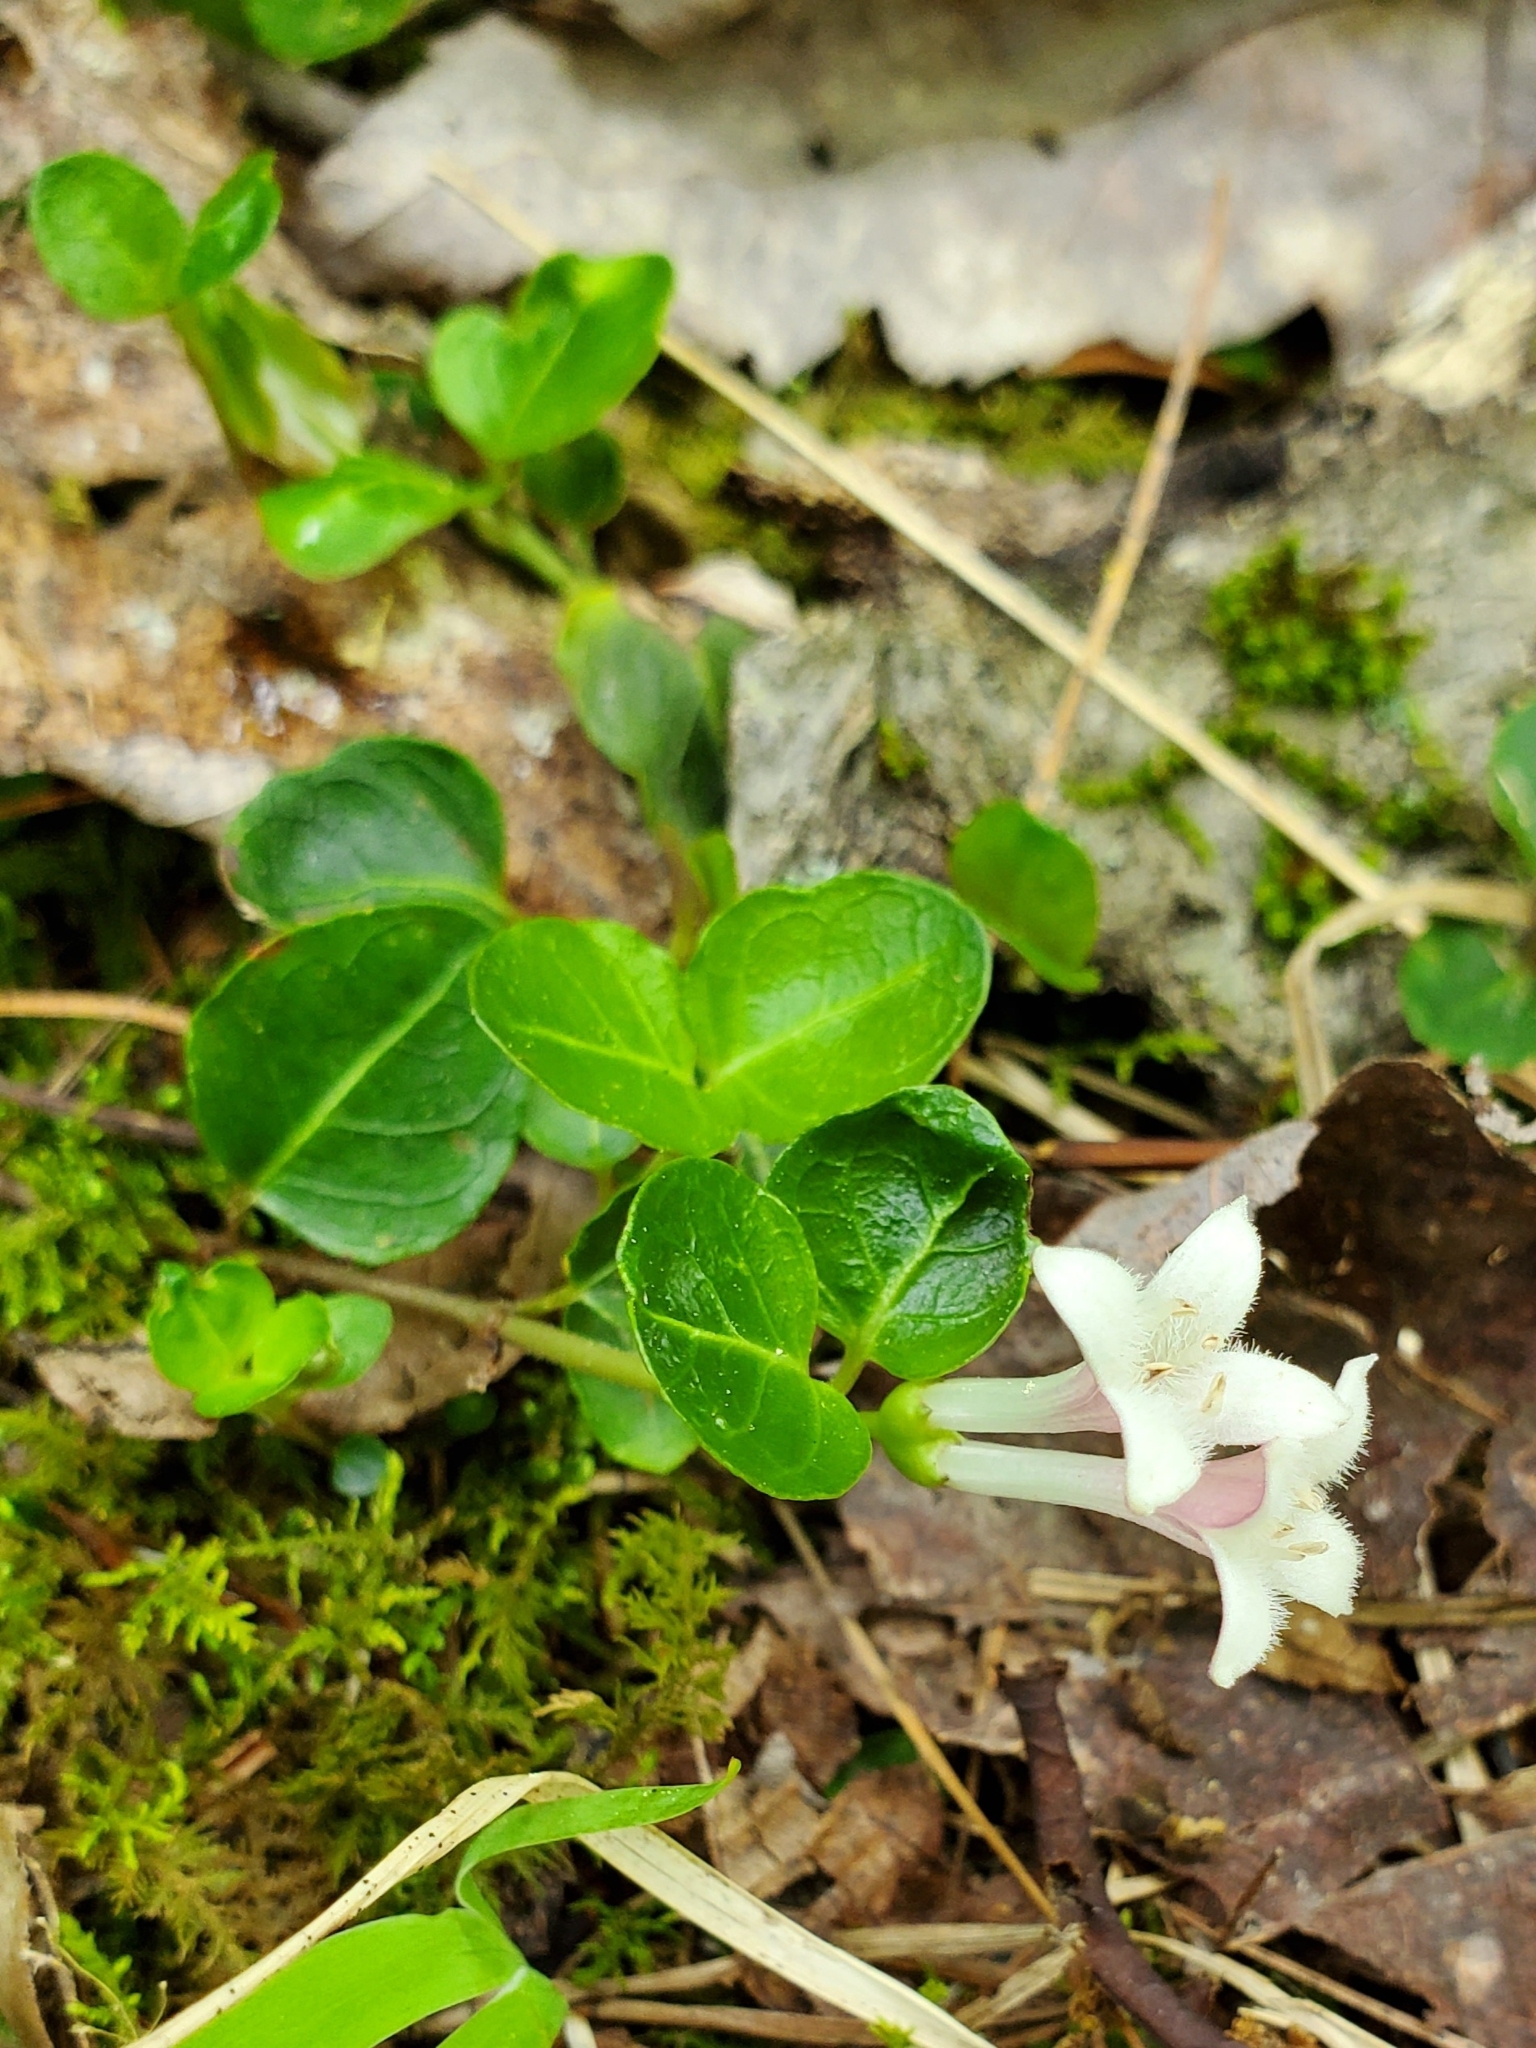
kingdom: Plantae
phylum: Tracheophyta
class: Magnoliopsida
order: Gentianales
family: Rubiaceae
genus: Mitchella
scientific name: Mitchella repens
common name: Partridge-berry
